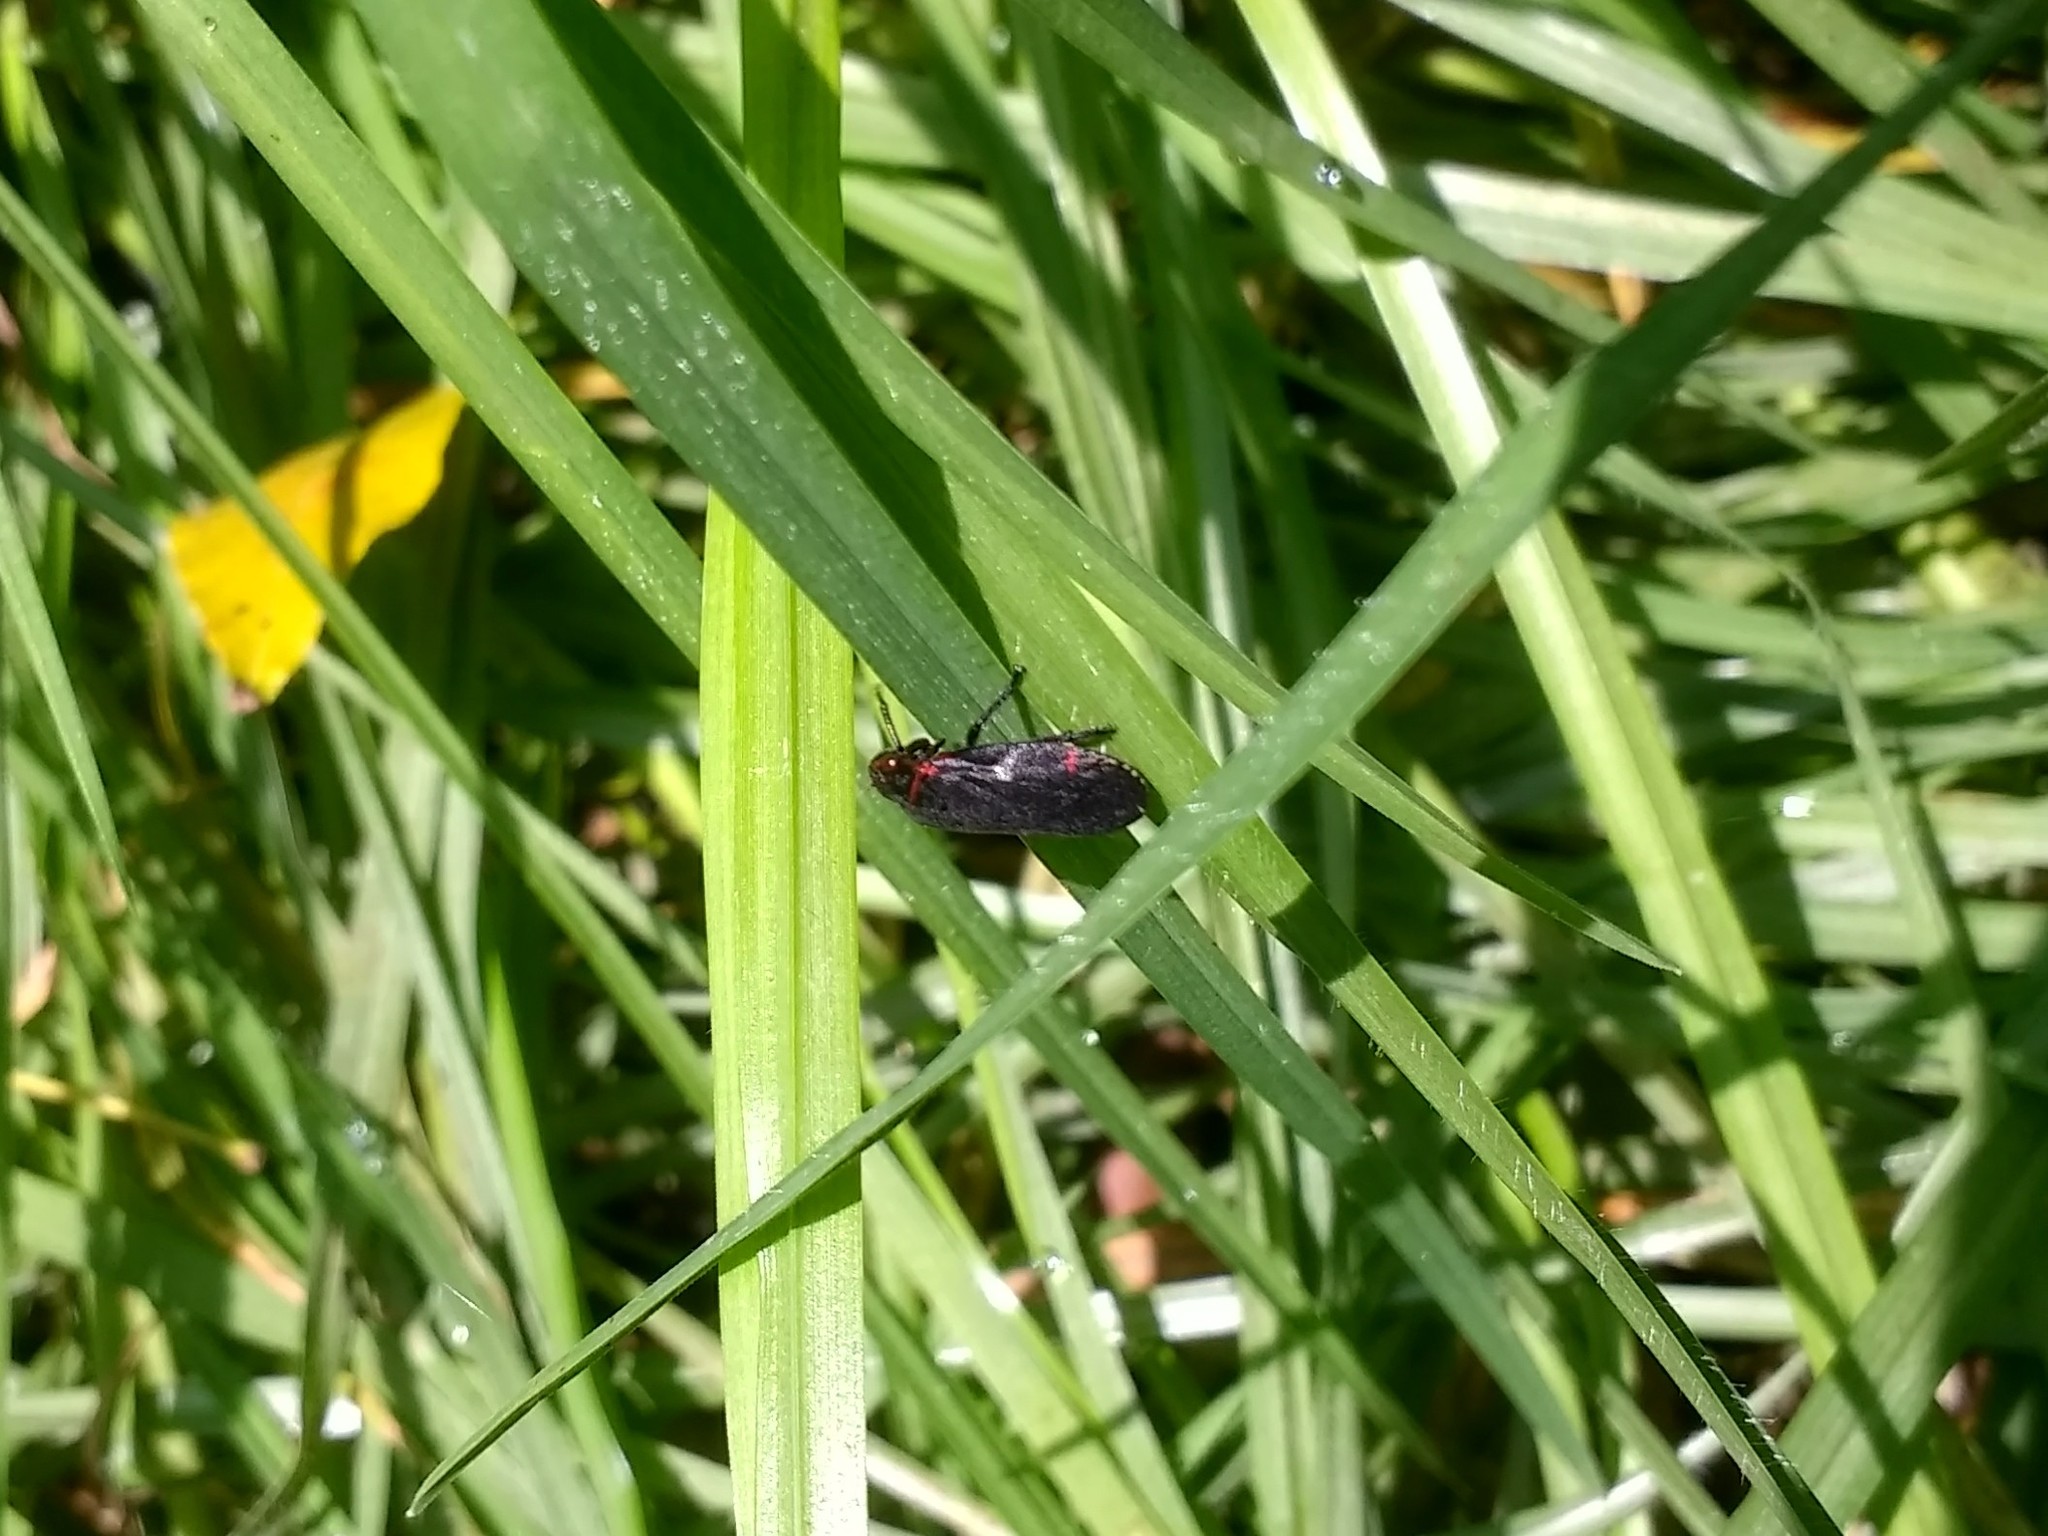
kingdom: Animalia
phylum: Arthropoda
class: Insecta
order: Hemiptera
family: Cercopidae
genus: Prosapia
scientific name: Prosapia
